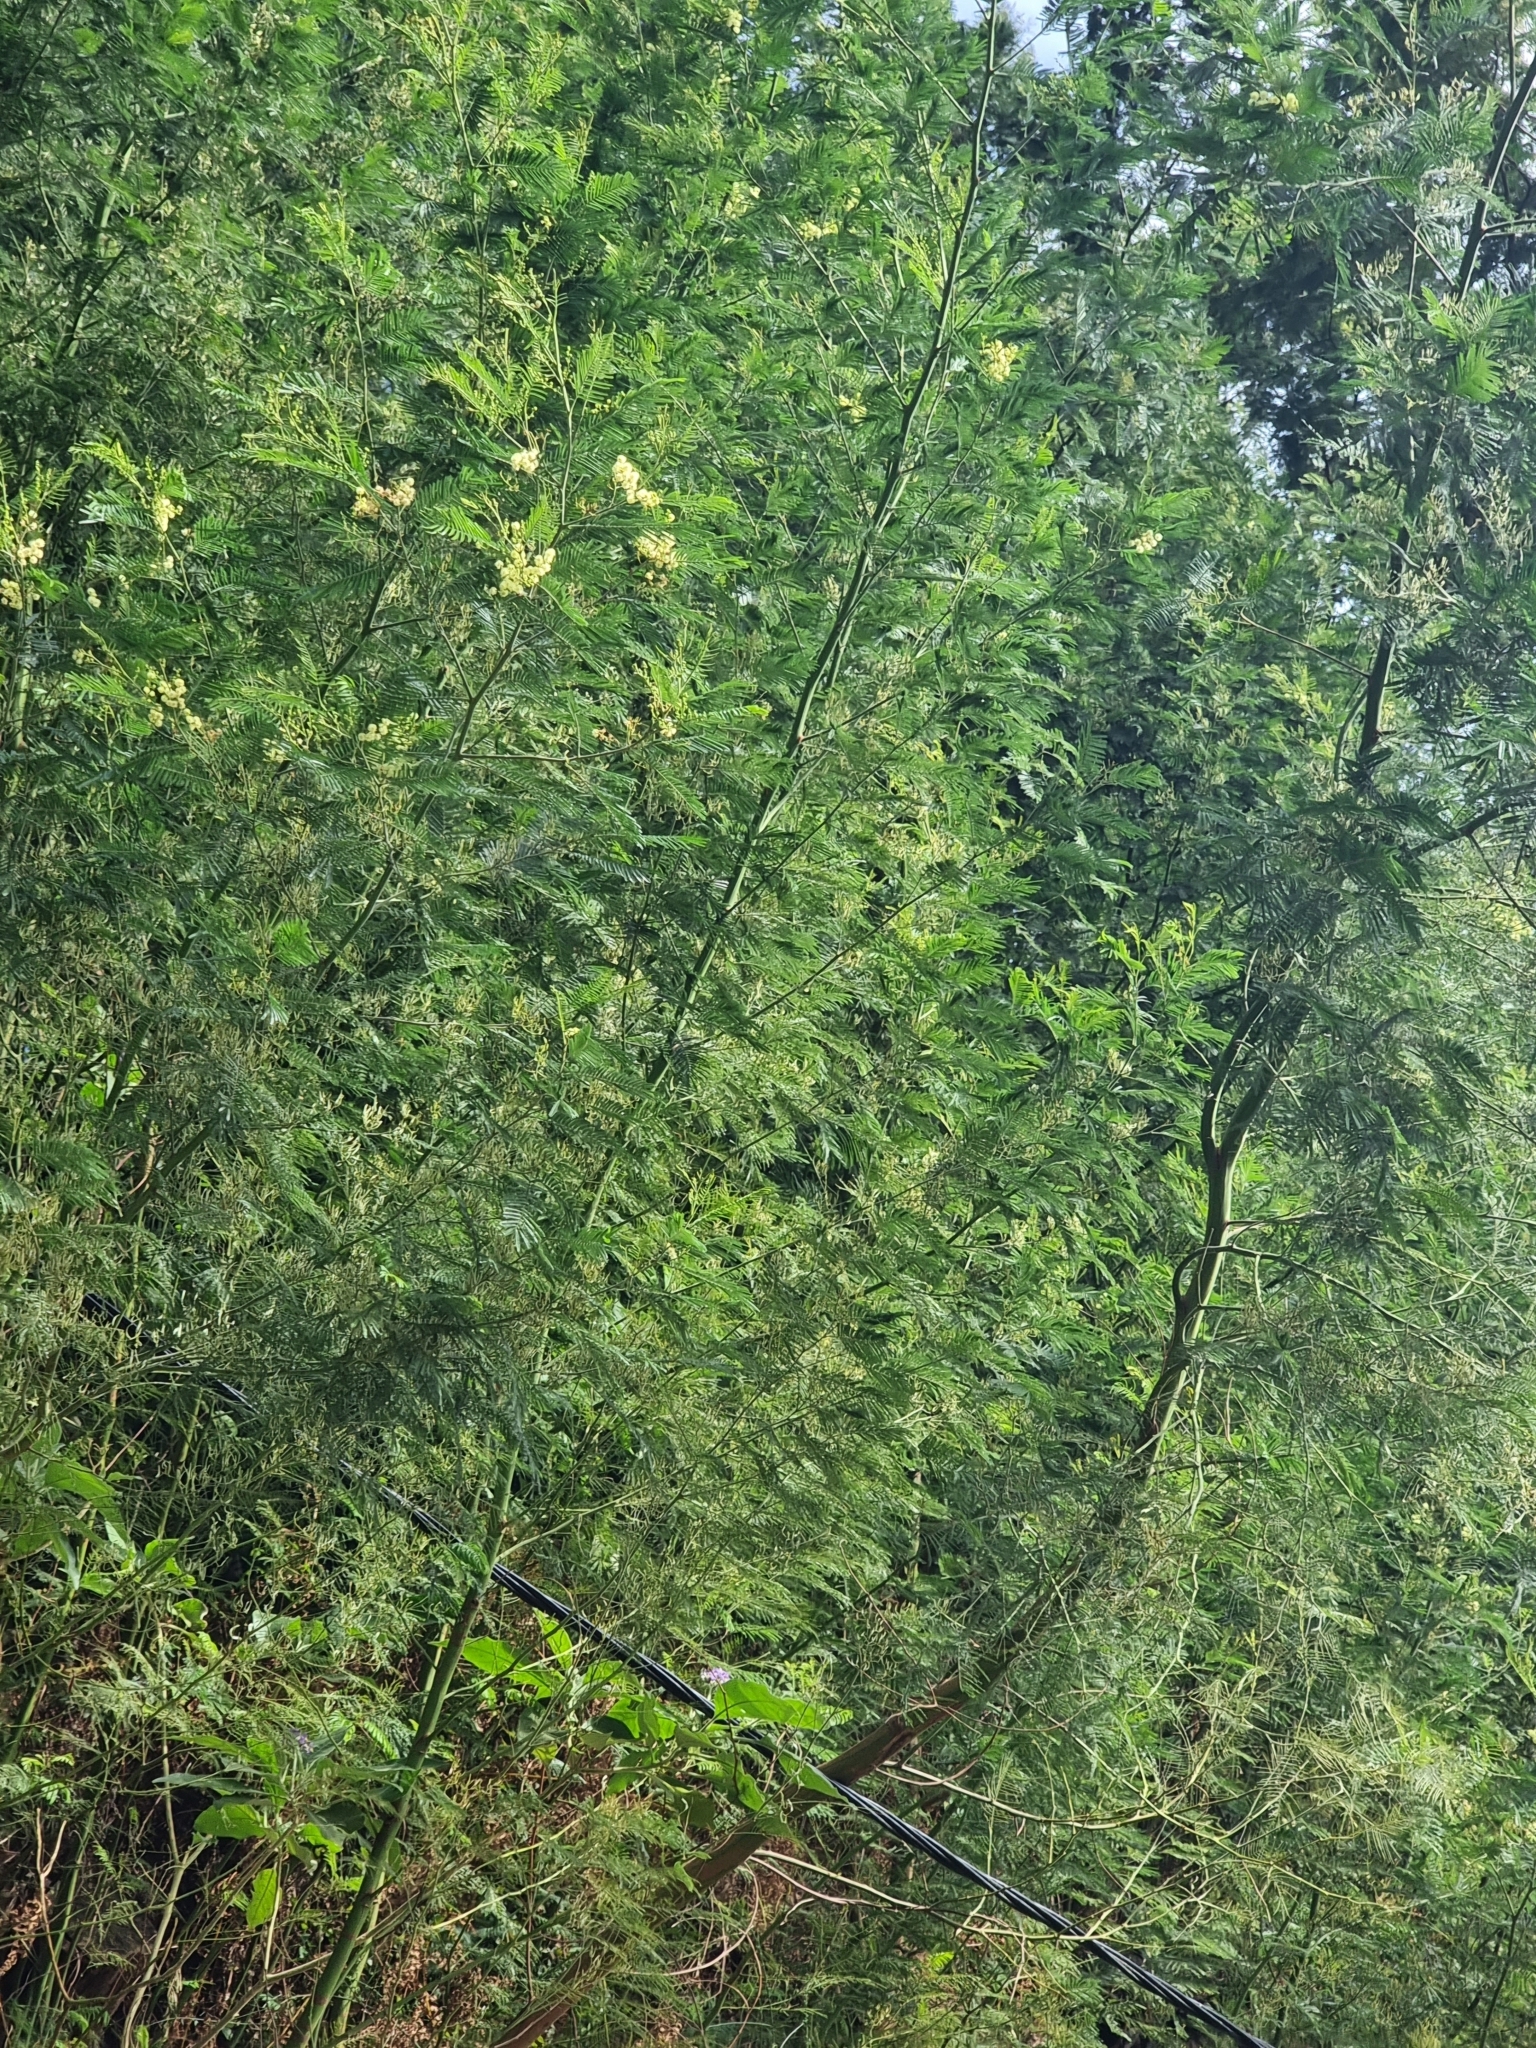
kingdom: Plantae
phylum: Tracheophyta
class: Magnoliopsida
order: Fabales
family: Fabaceae
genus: Acacia
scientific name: Acacia mearnsii
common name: Black wattle
